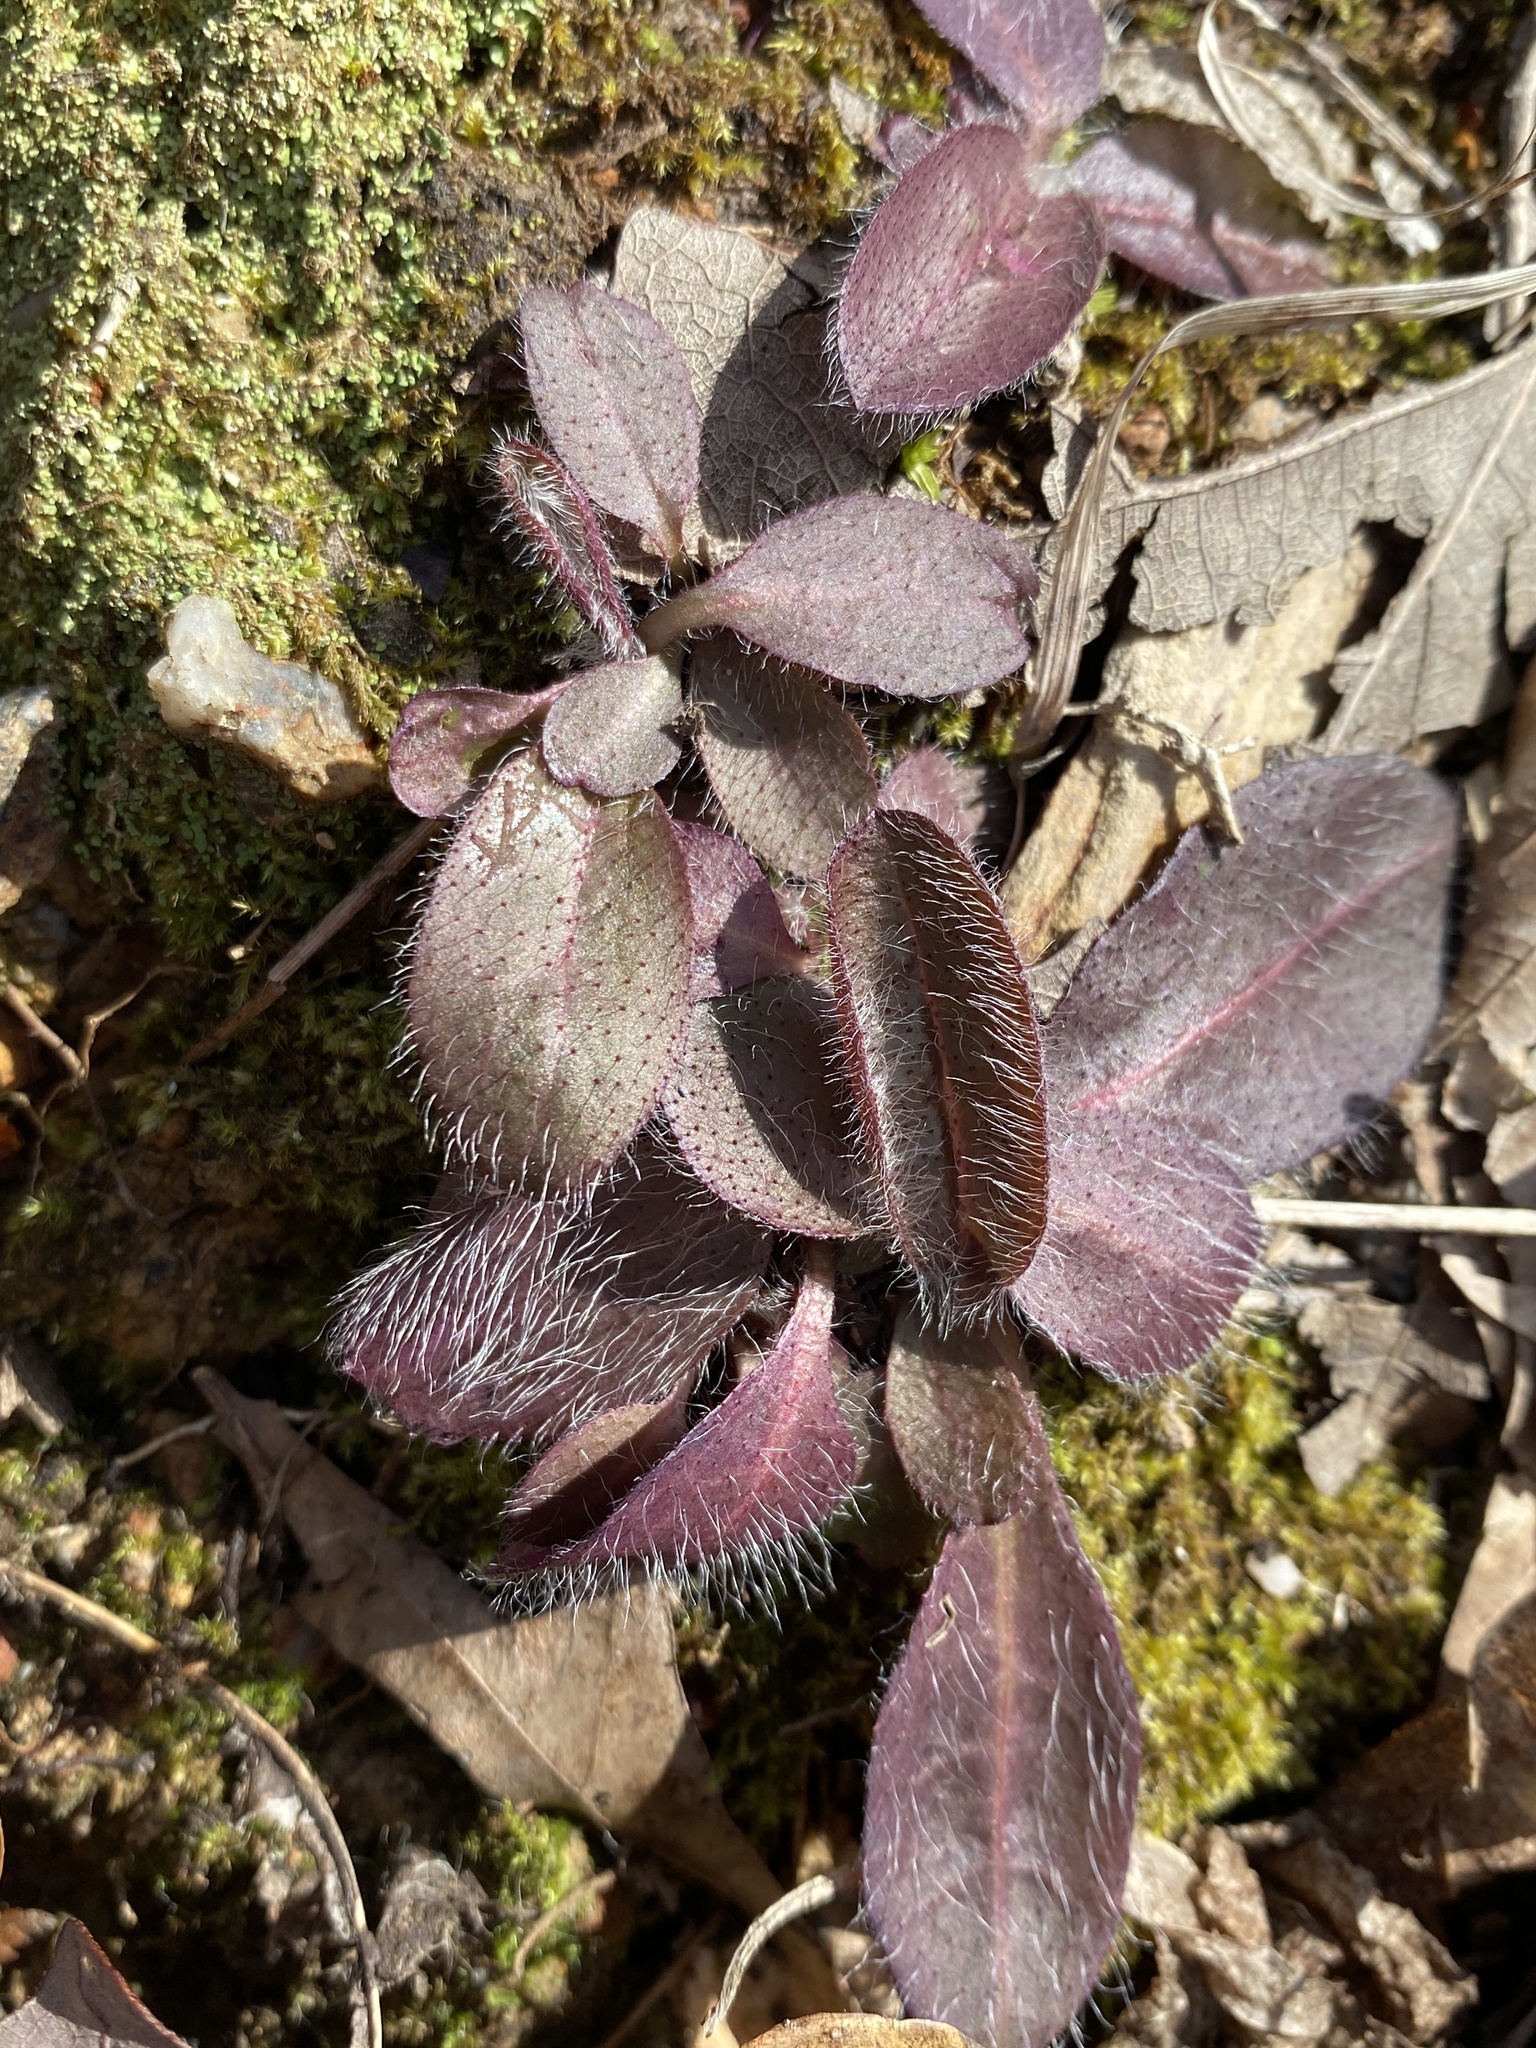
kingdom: Plantae
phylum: Tracheophyta
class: Magnoliopsida
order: Asterales
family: Asteraceae
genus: Hieracium
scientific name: Hieracium gronovii
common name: Beaked hawkweed
